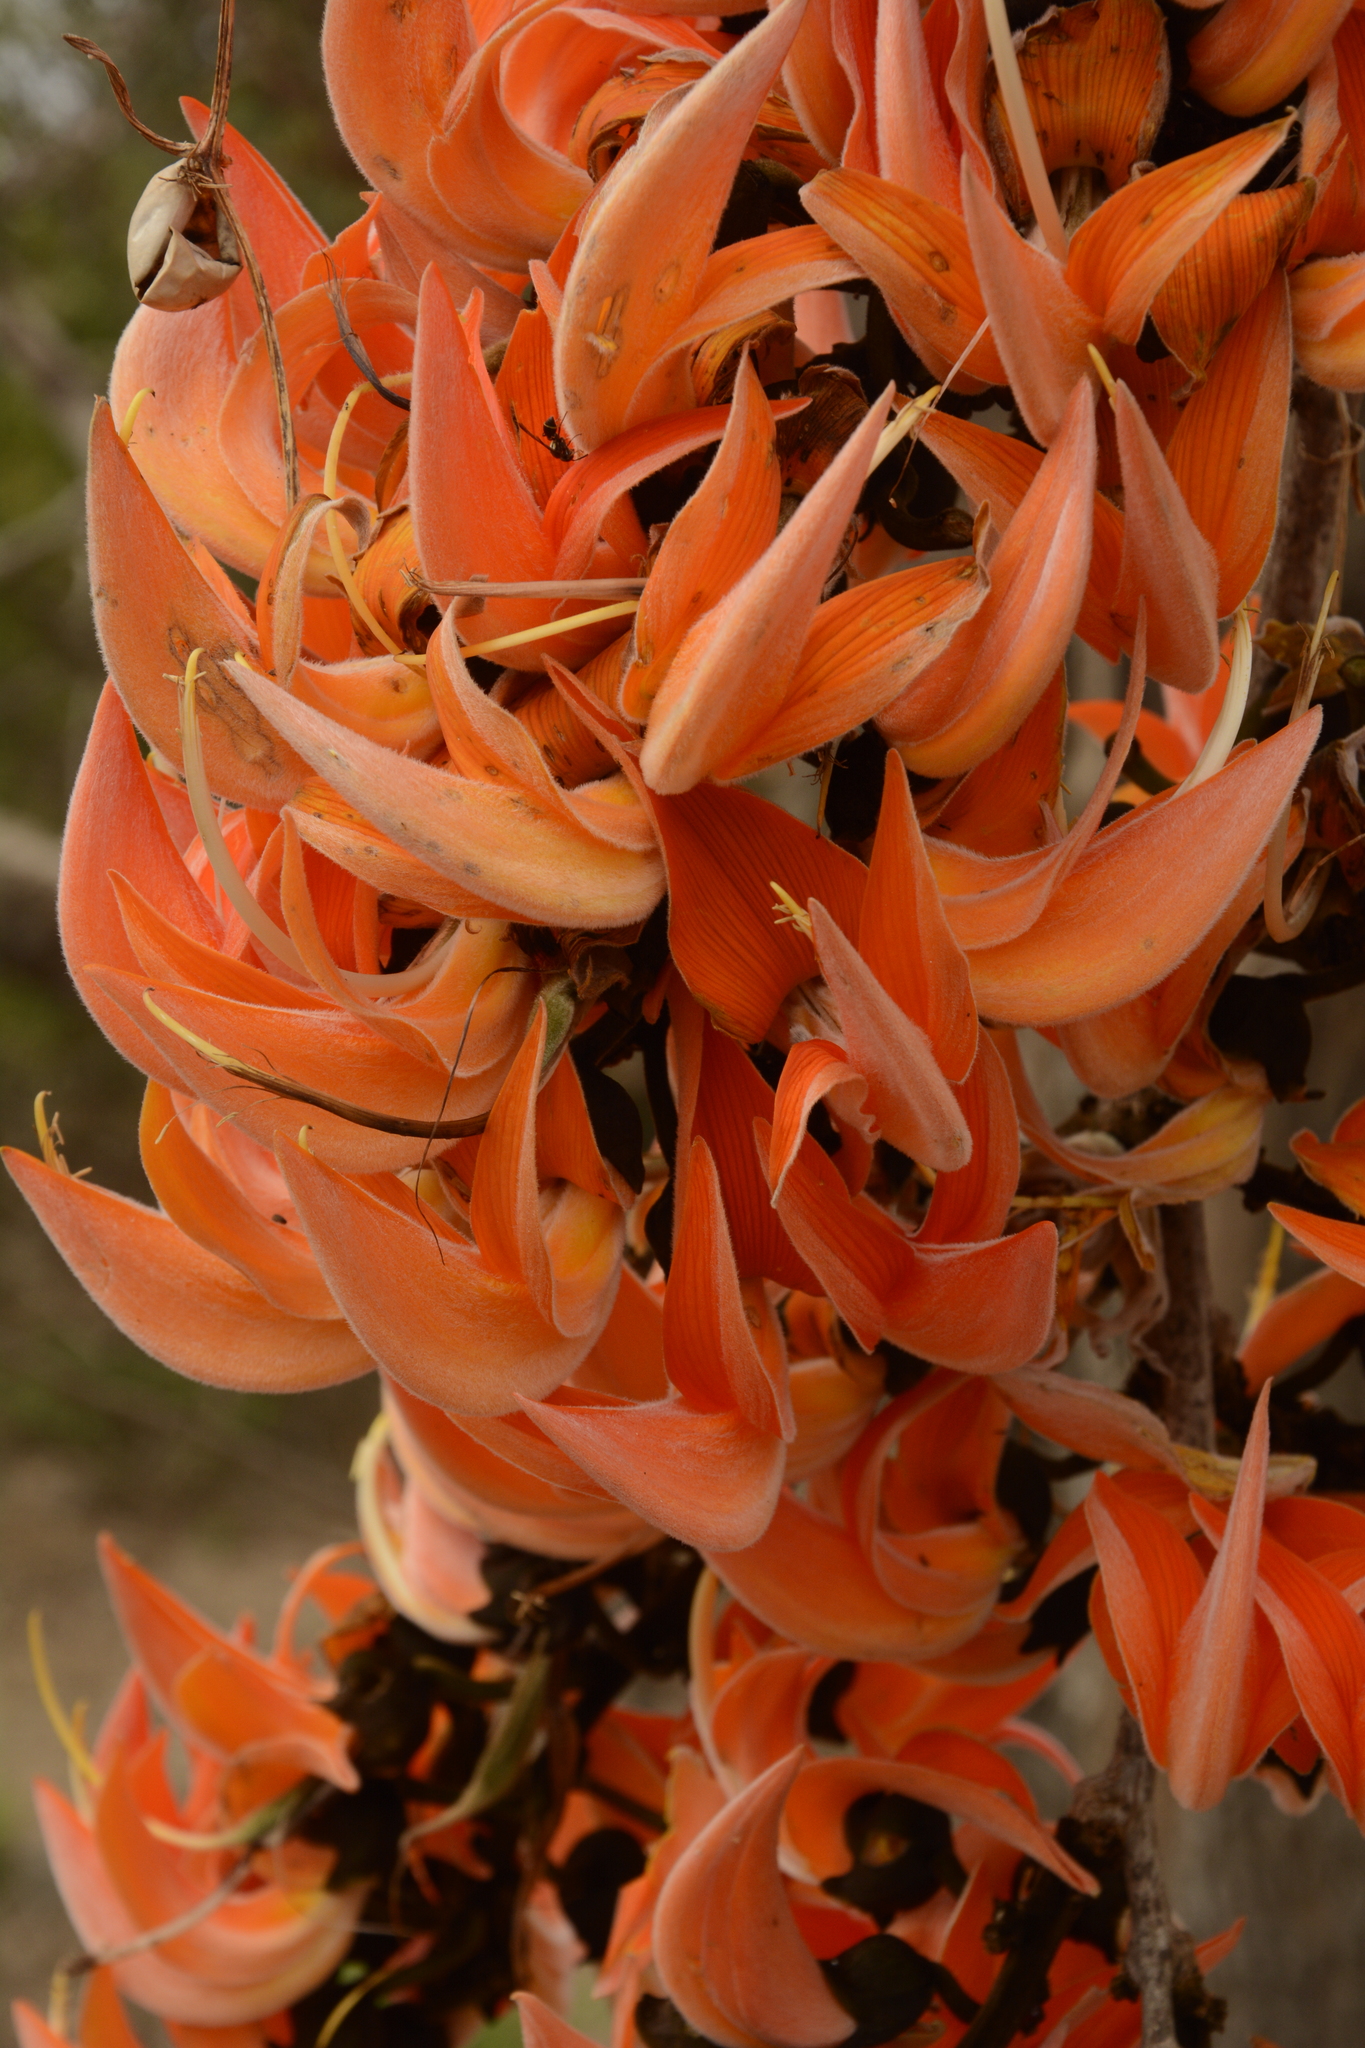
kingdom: Plantae
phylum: Tracheophyta
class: Magnoliopsida
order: Fabales
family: Fabaceae
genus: Butea
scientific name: Butea monosperma
